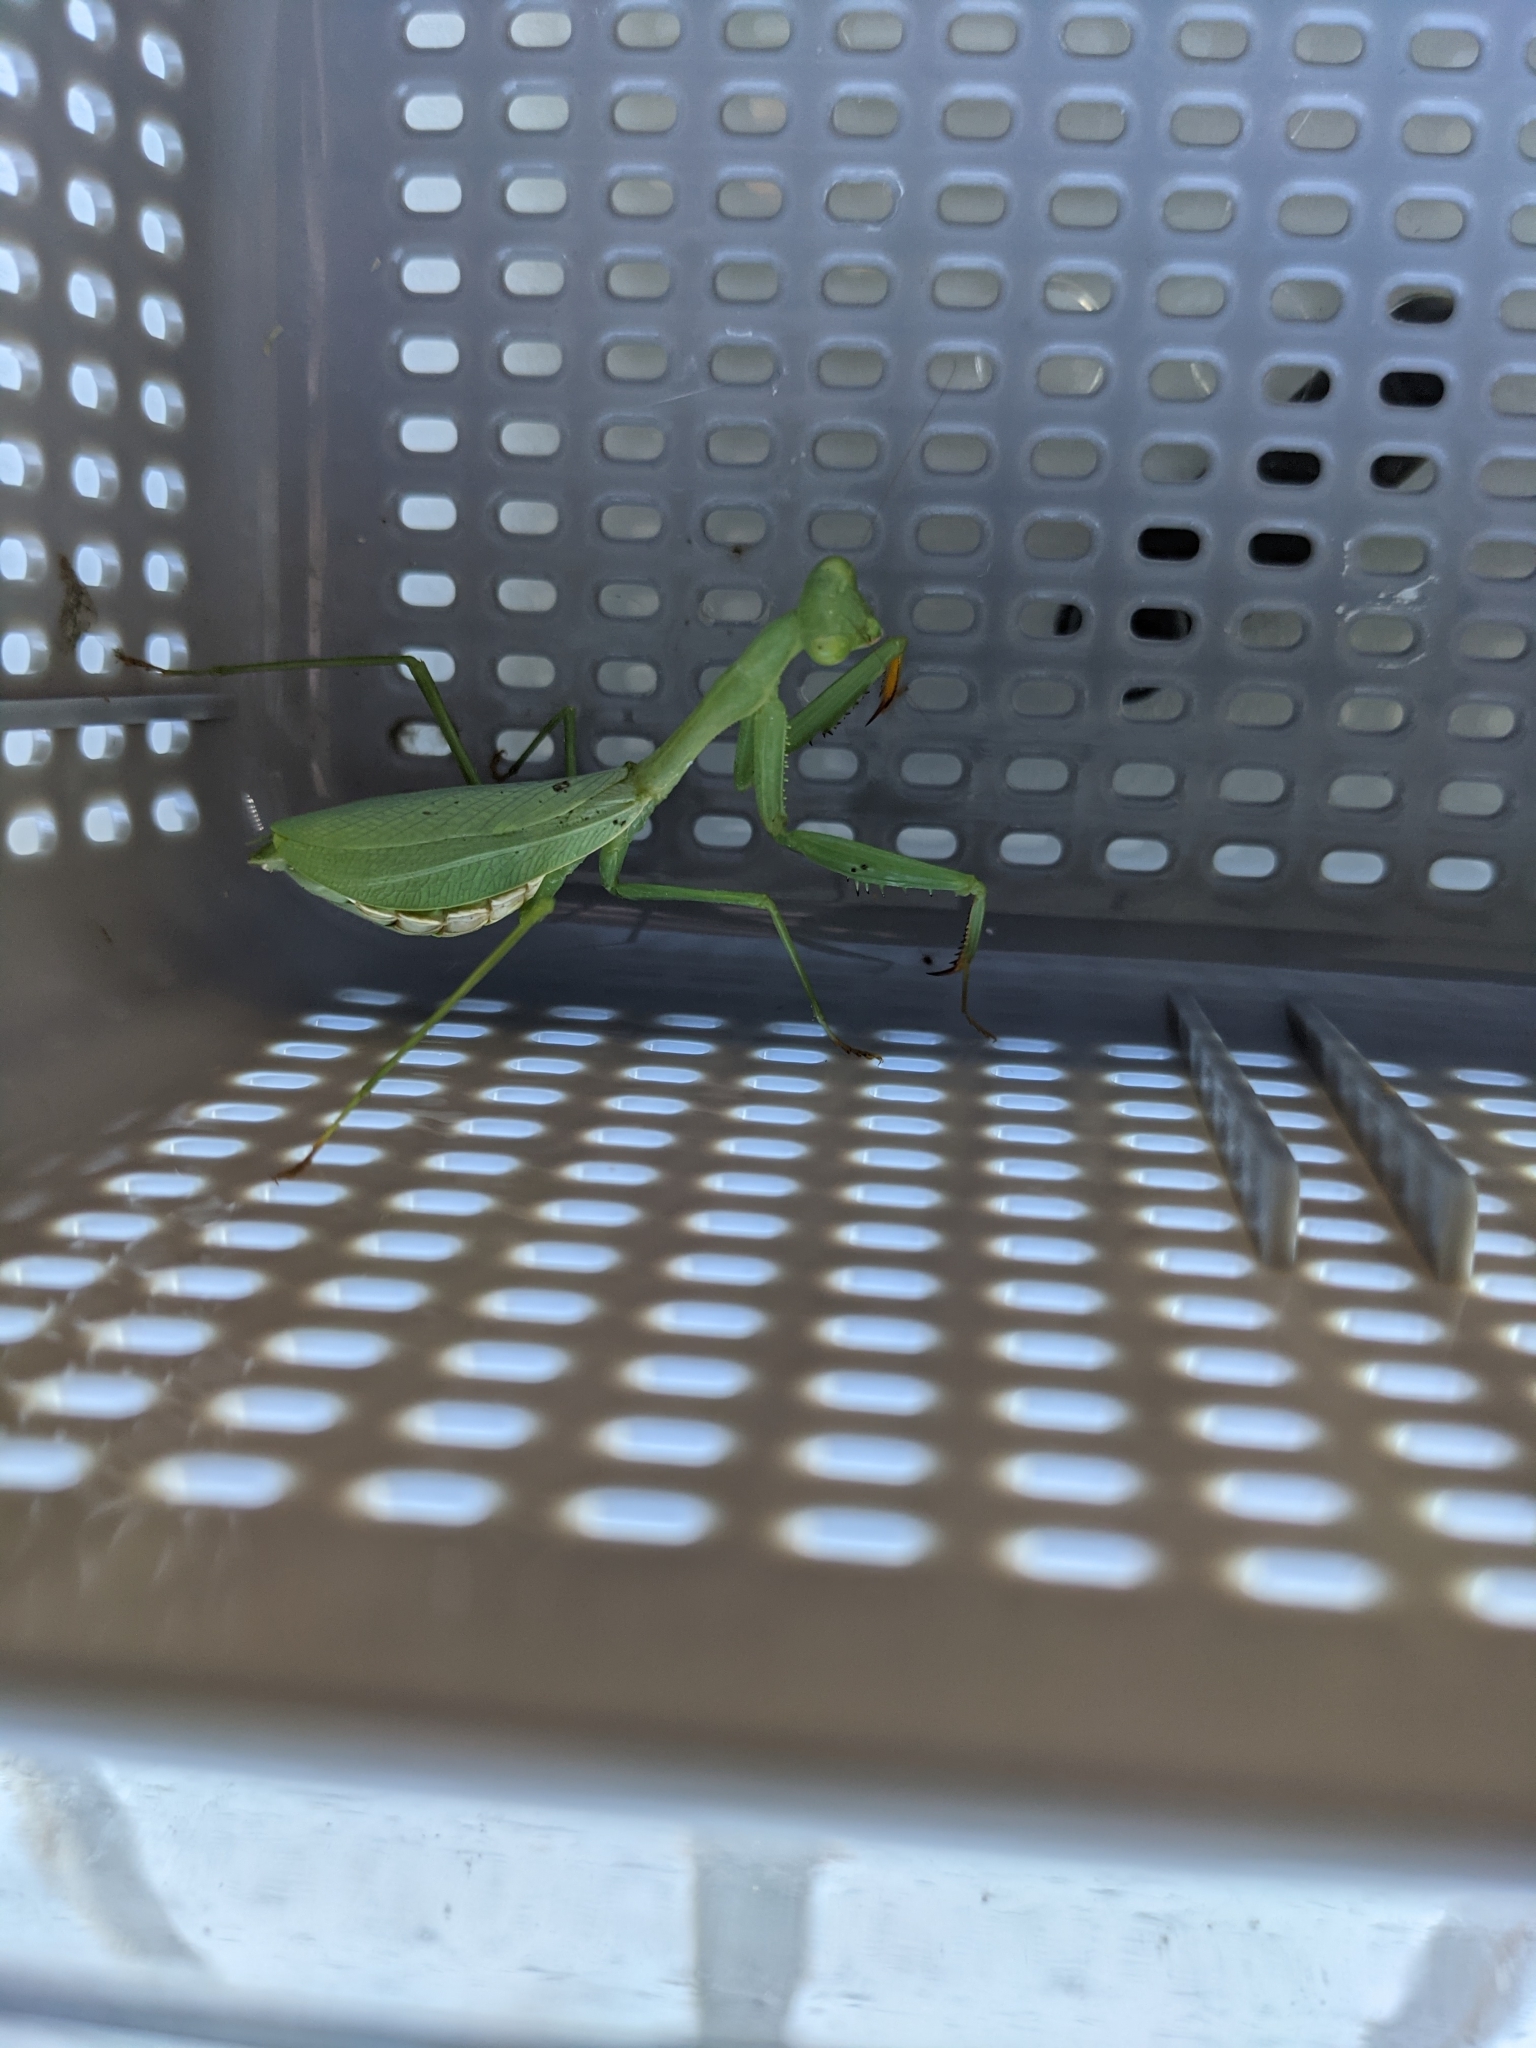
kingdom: Animalia
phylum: Arthropoda
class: Insecta
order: Mantodea
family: Miomantidae
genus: Miomantis
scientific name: Miomantis caffra
